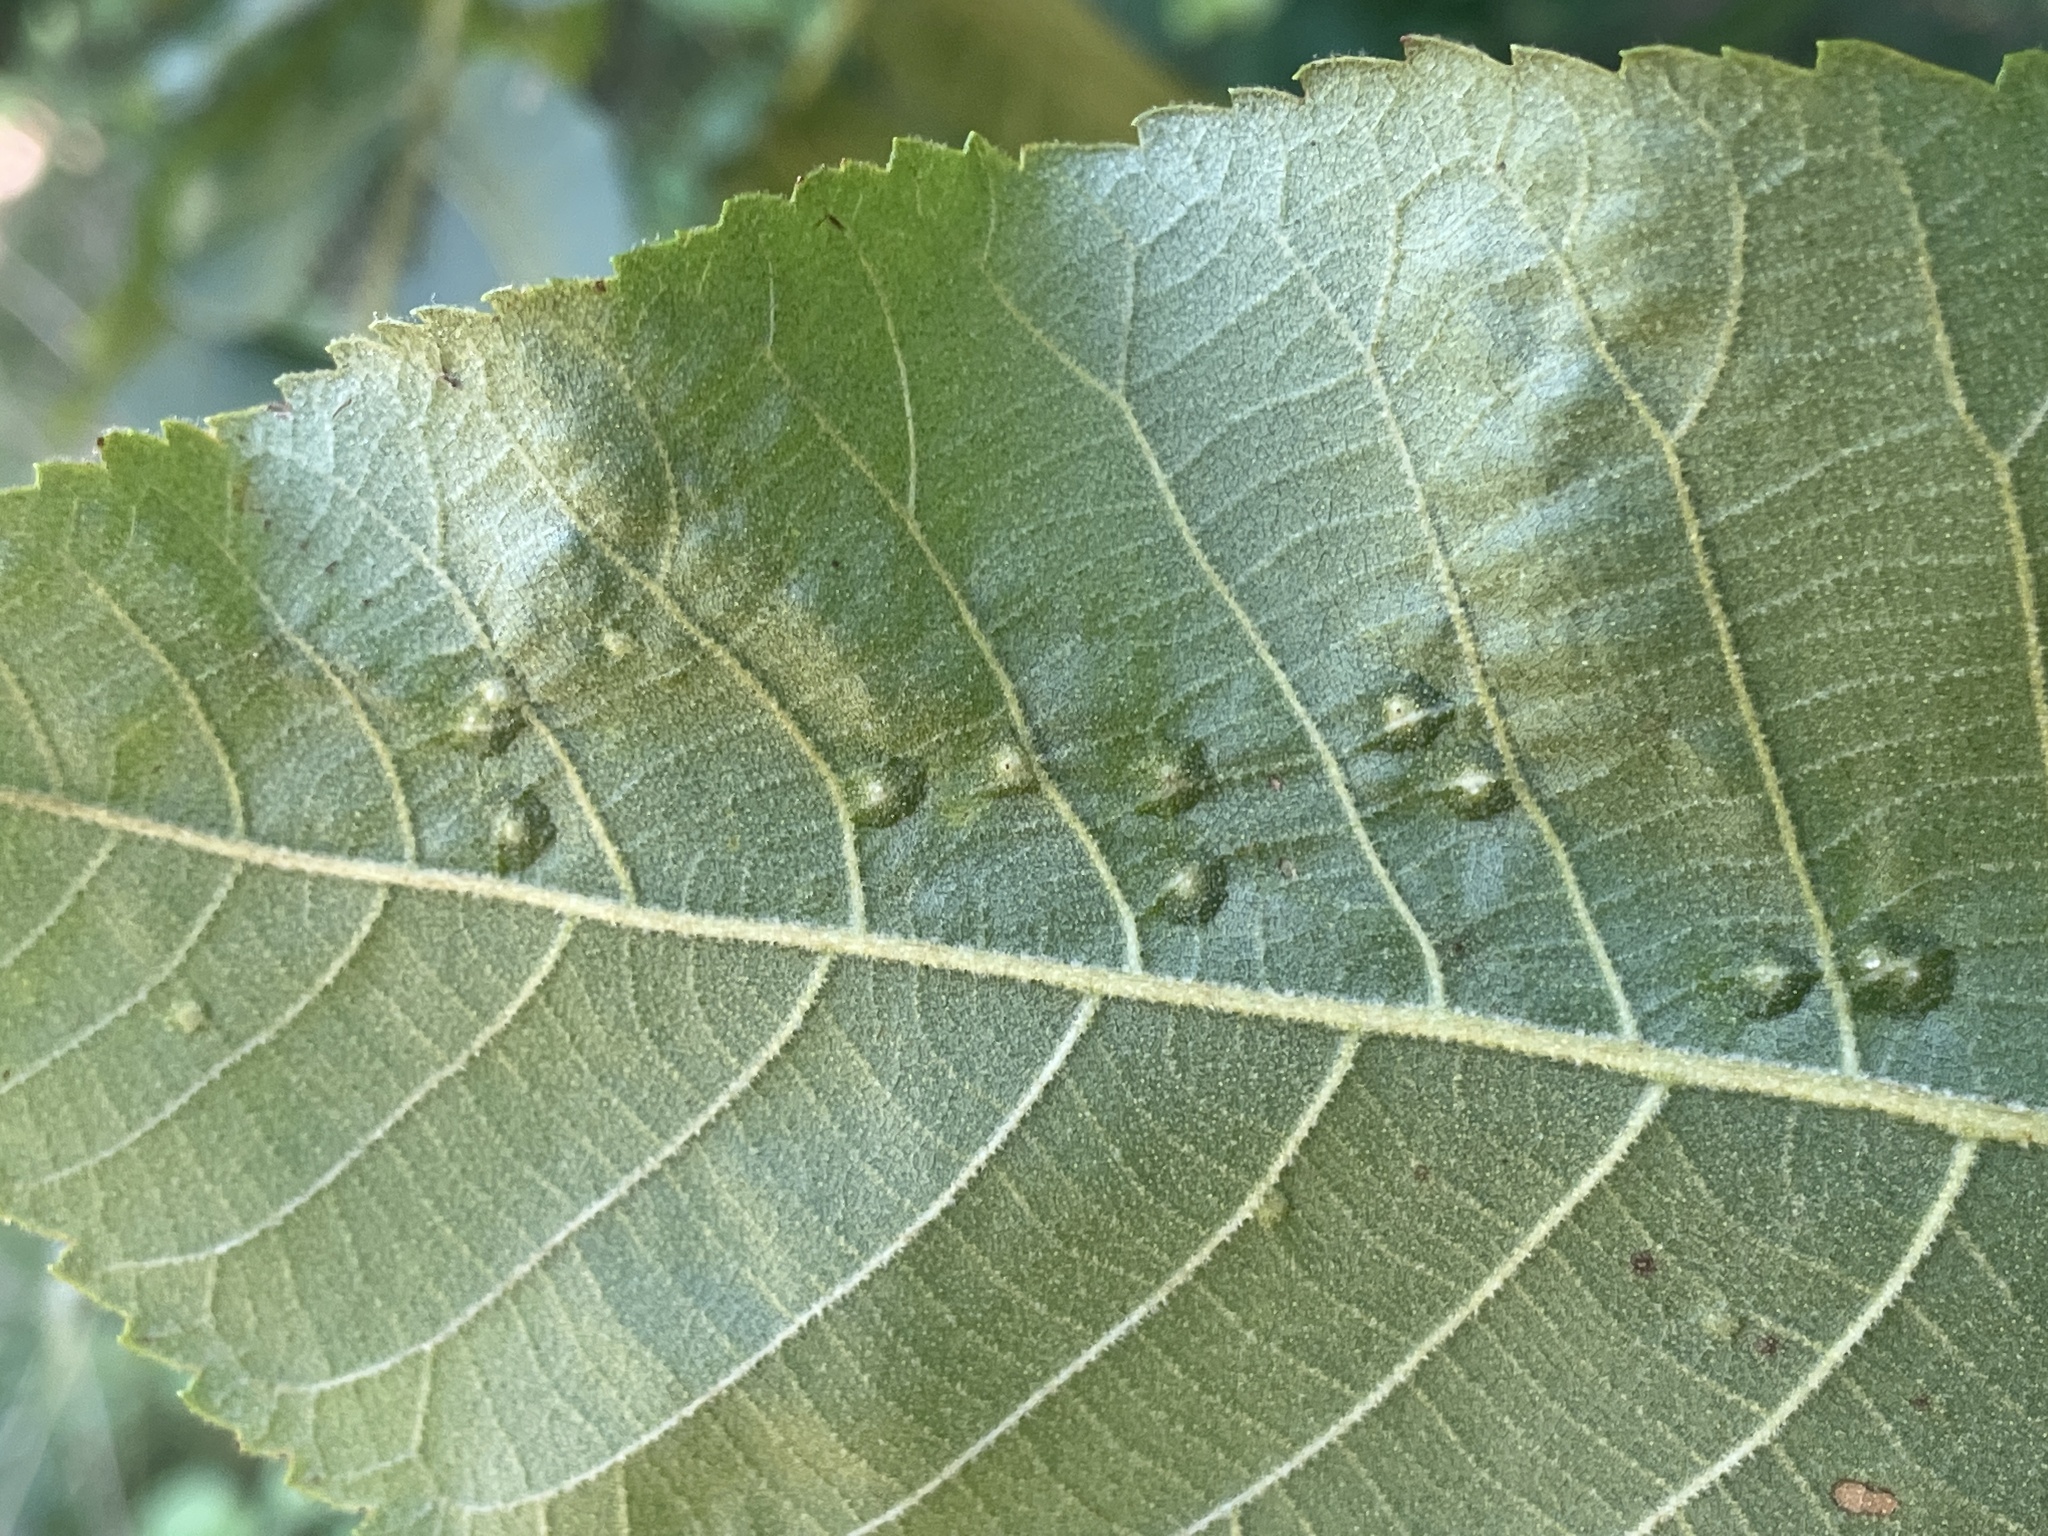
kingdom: Animalia
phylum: Arthropoda
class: Insecta
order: Diptera
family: Cecidomyiidae
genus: Caryadiplosis
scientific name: Caryadiplosis biconvexa
